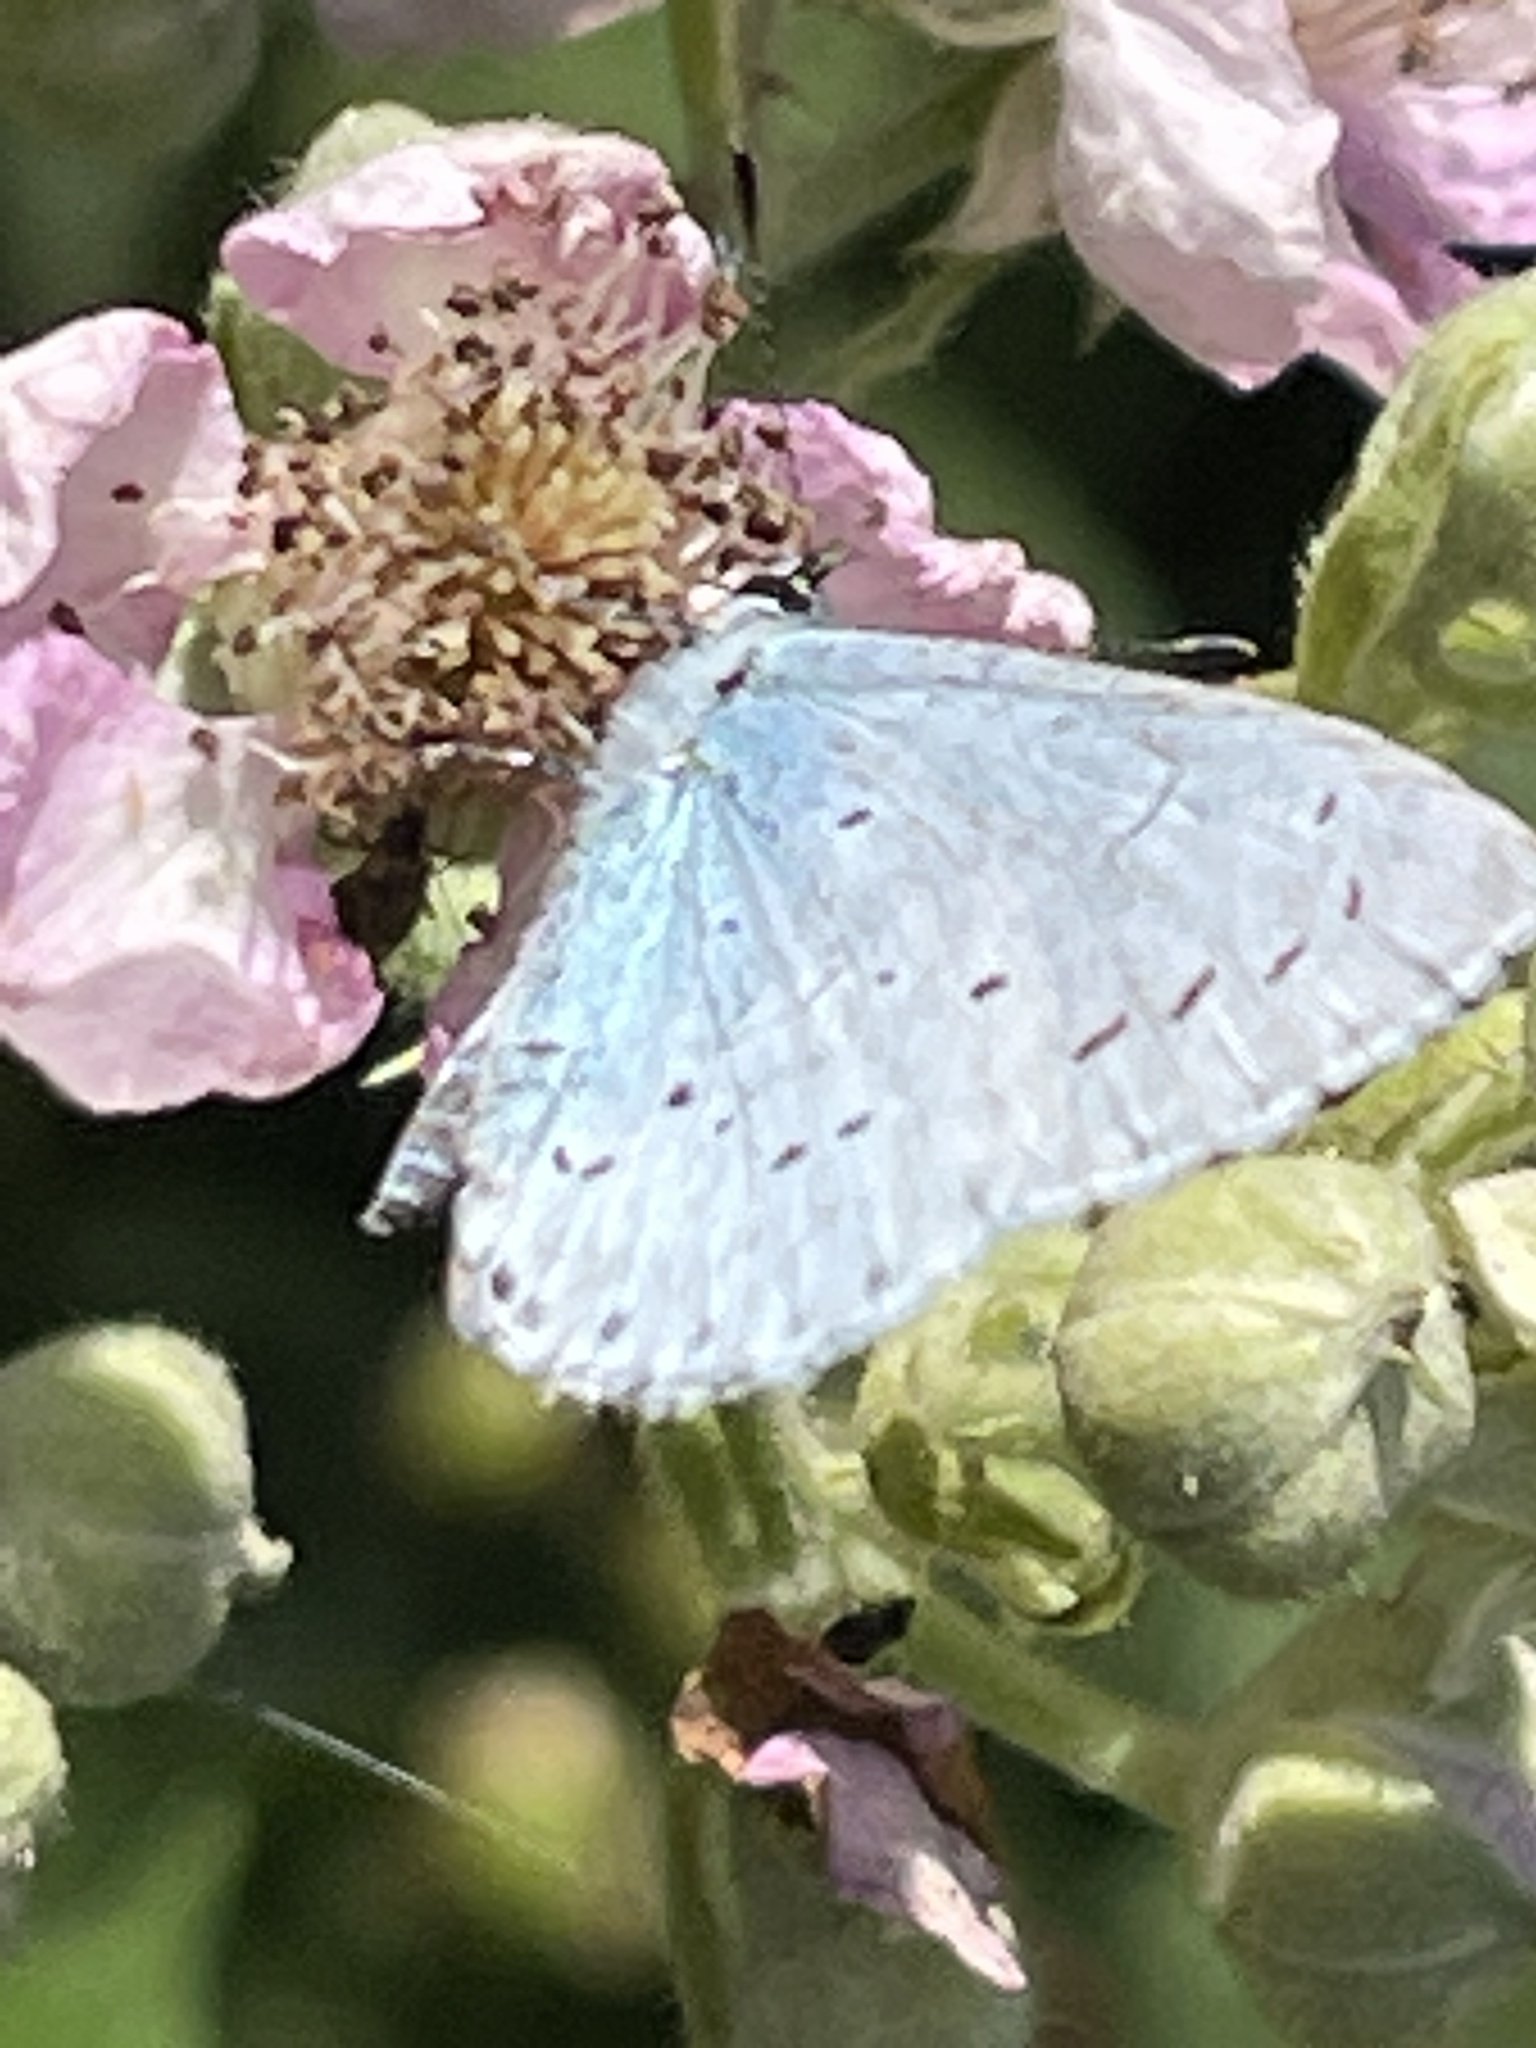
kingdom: Animalia
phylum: Arthropoda
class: Insecta
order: Lepidoptera
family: Lycaenidae
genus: Celastrina
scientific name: Celastrina argiolus
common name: Holly blue
